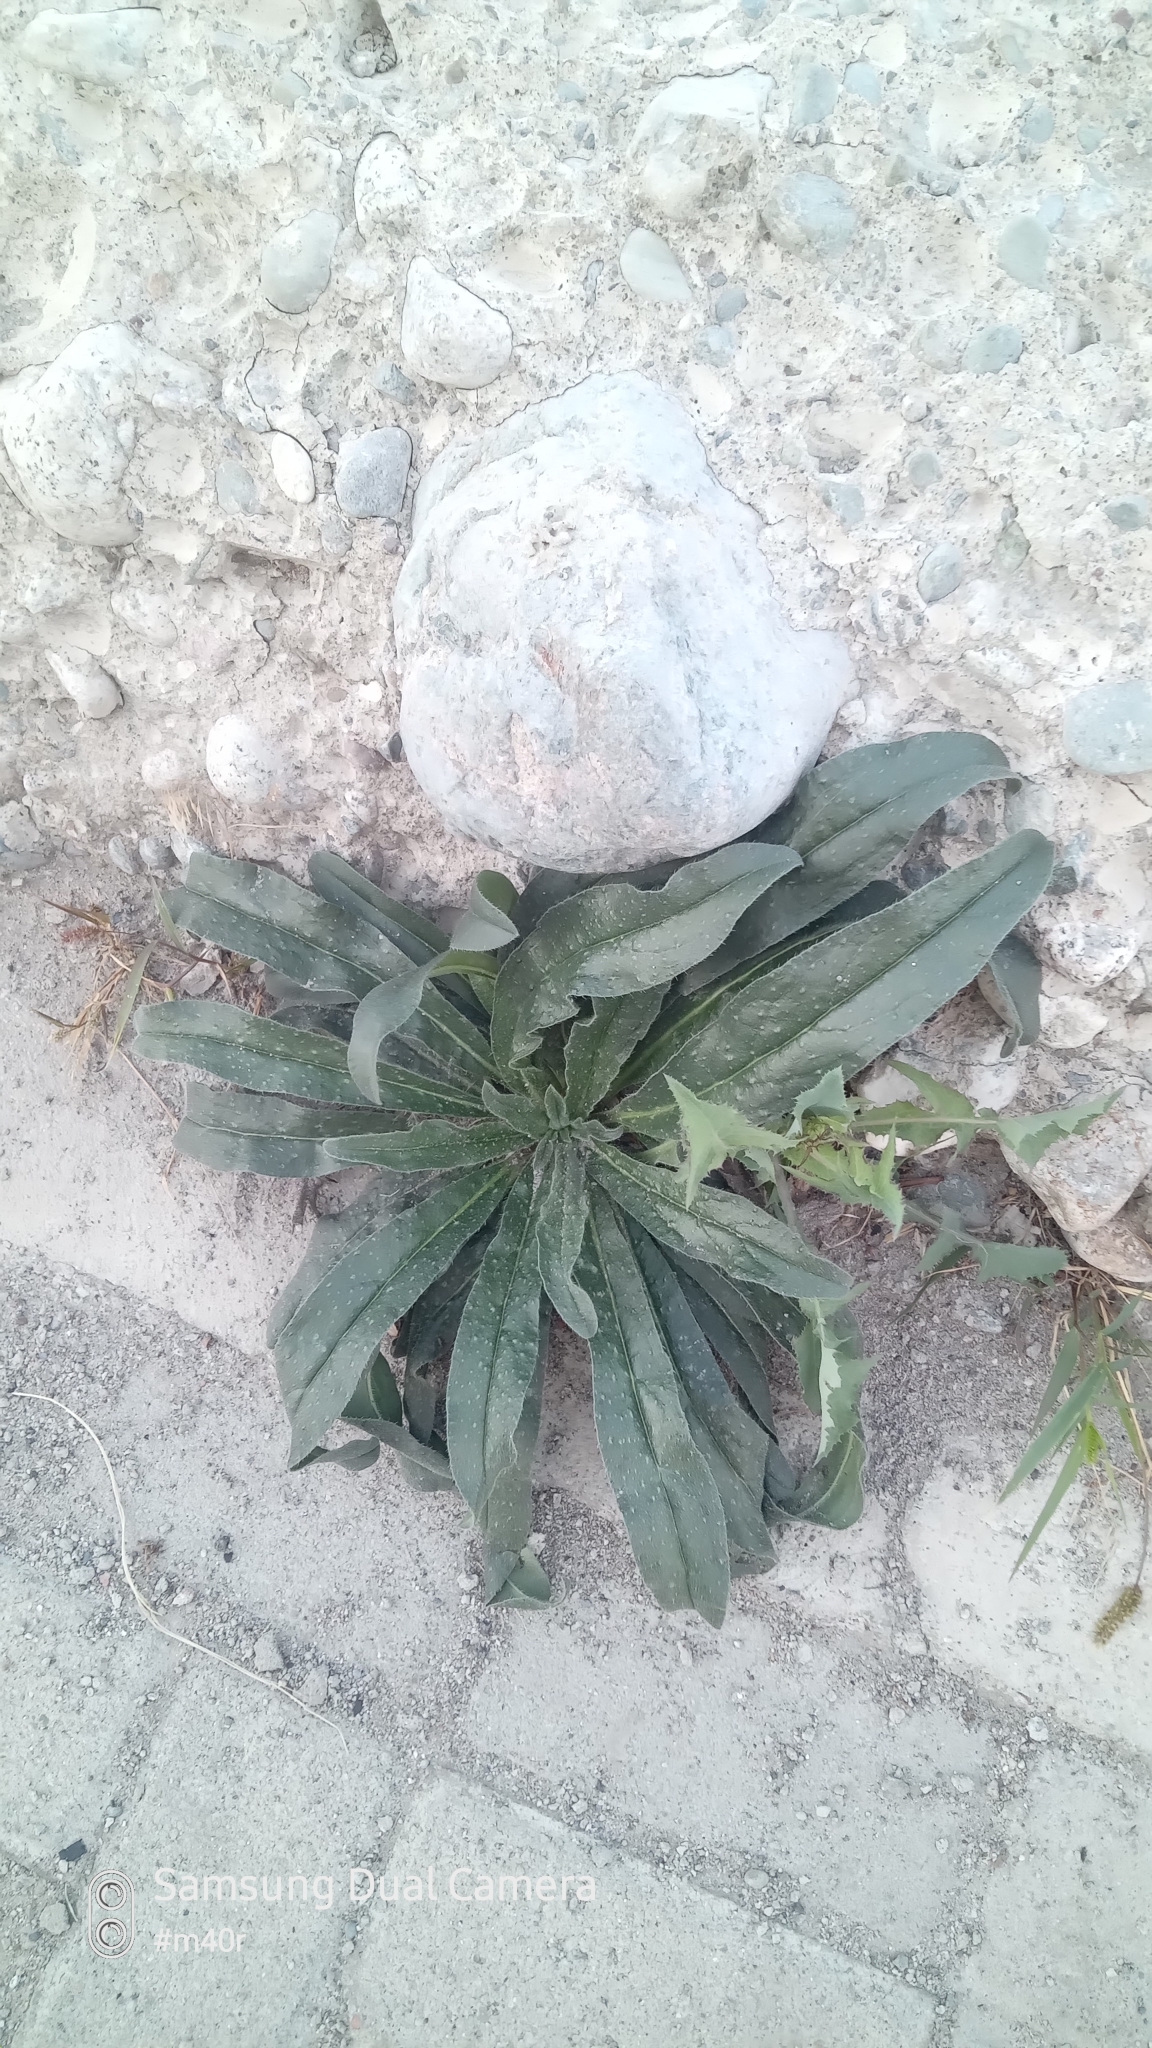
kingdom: Plantae
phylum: Tracheophyta
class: Magnoliopsida
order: Boraginales
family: Boraginaceae
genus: Echium
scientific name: Echium vulgare
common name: Common viper's bugloss
